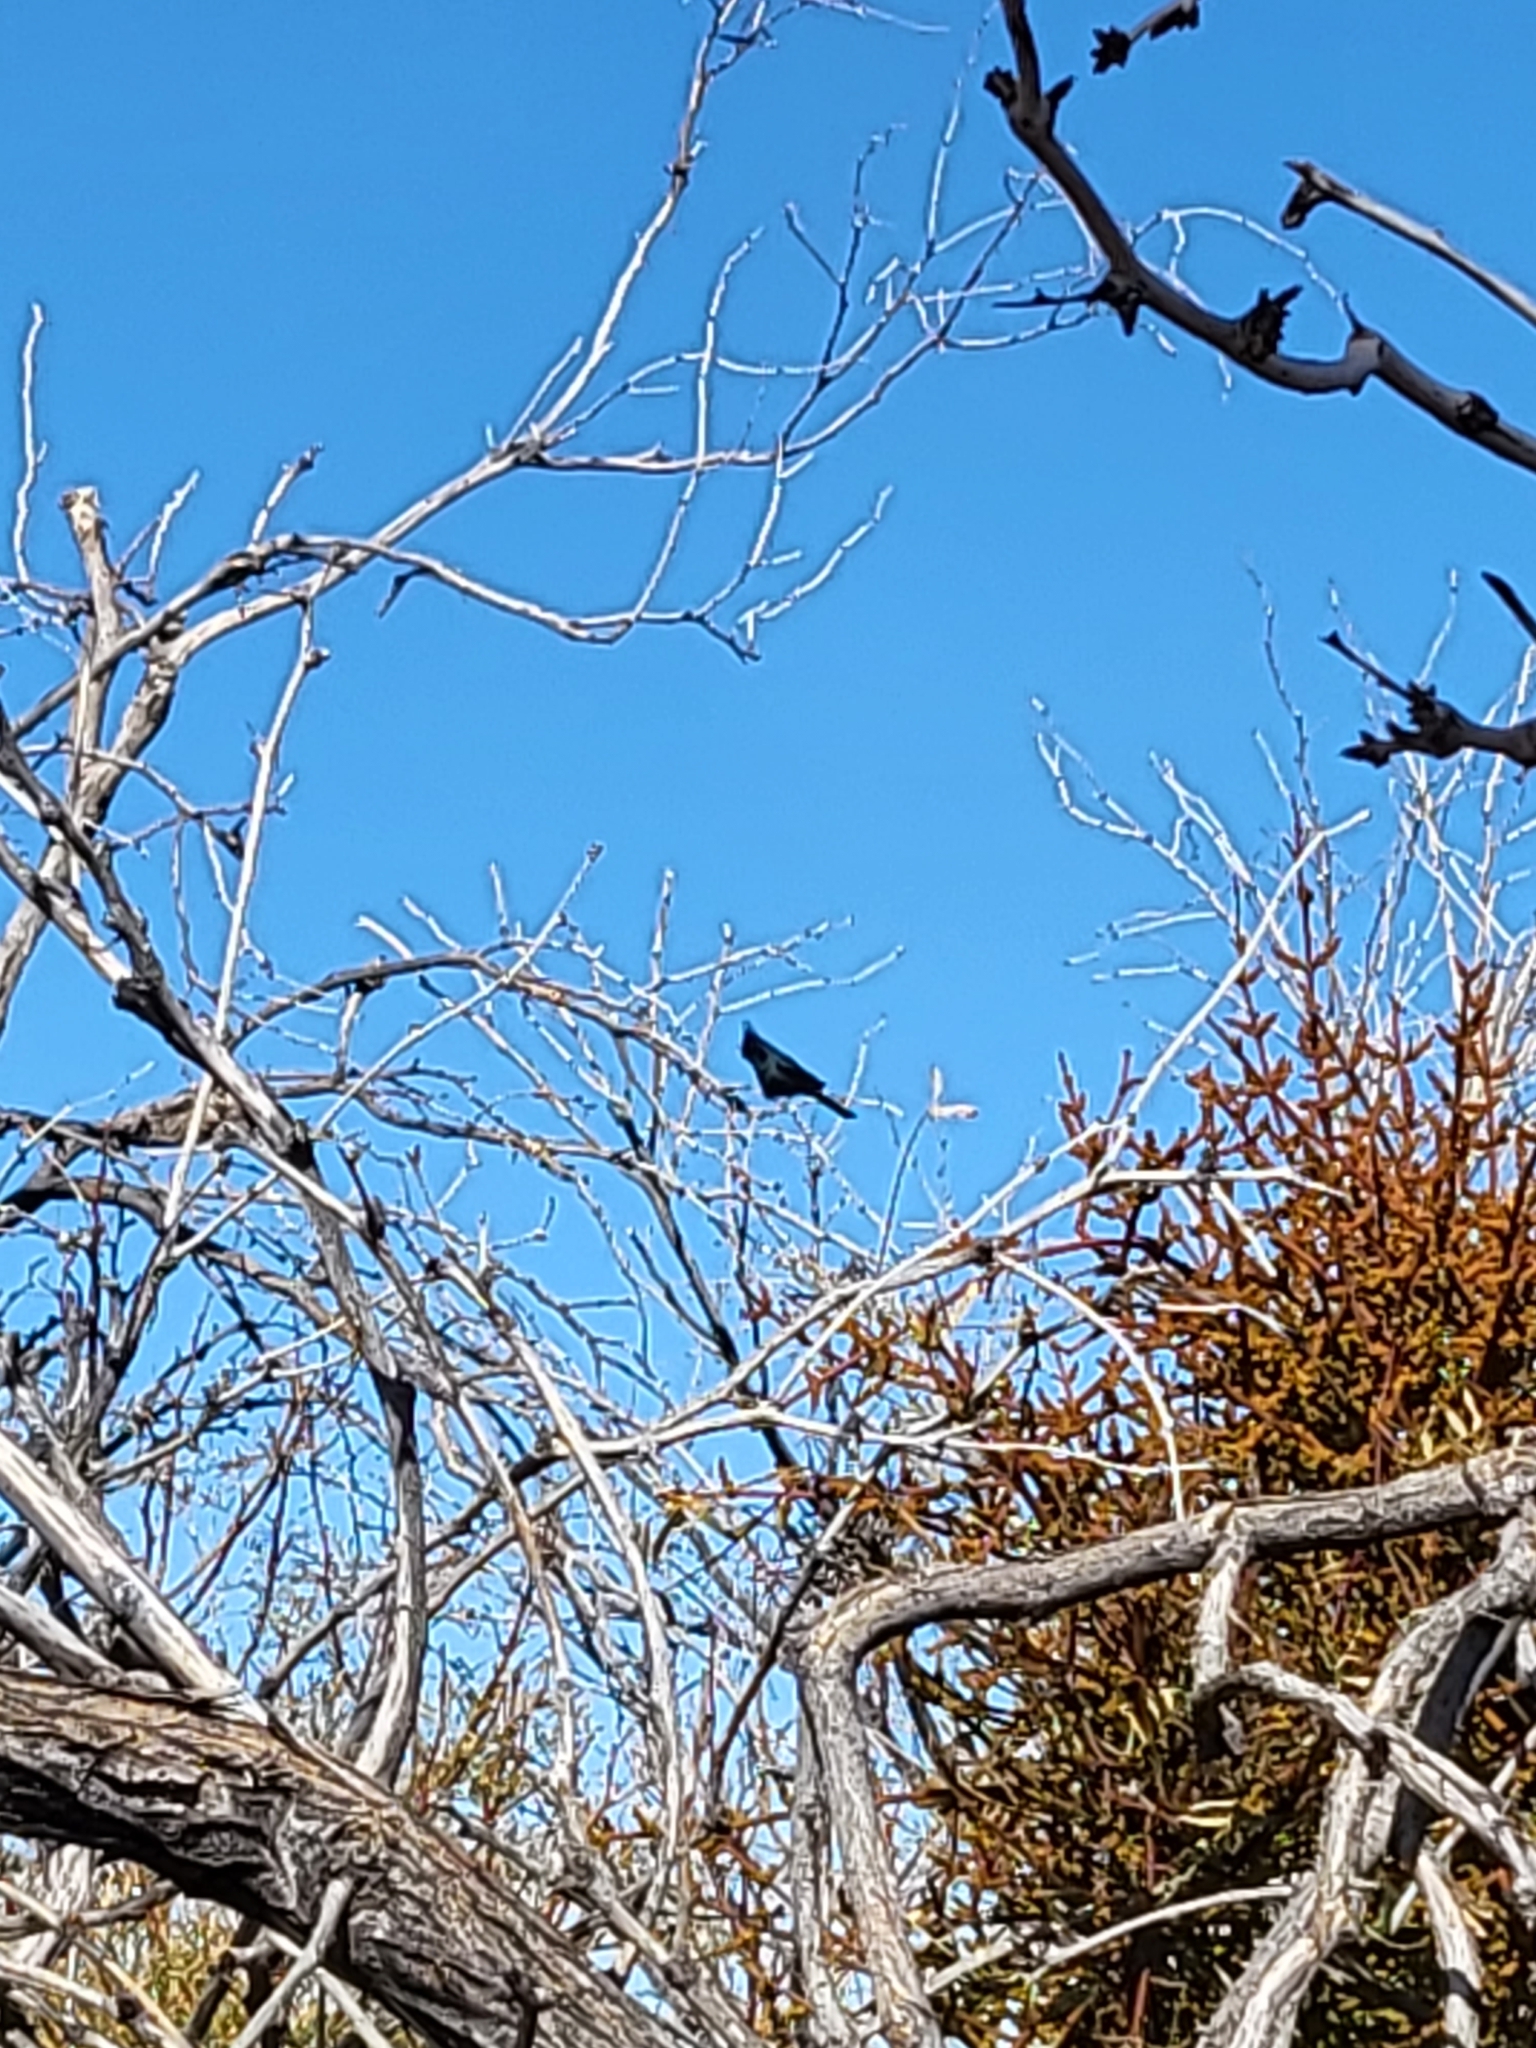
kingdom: Animalia
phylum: Chordata
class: Aves
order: Passeriformes
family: Ptilogonatidae
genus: Phainopepla
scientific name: Phainopepla nitens
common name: Phainopepla
